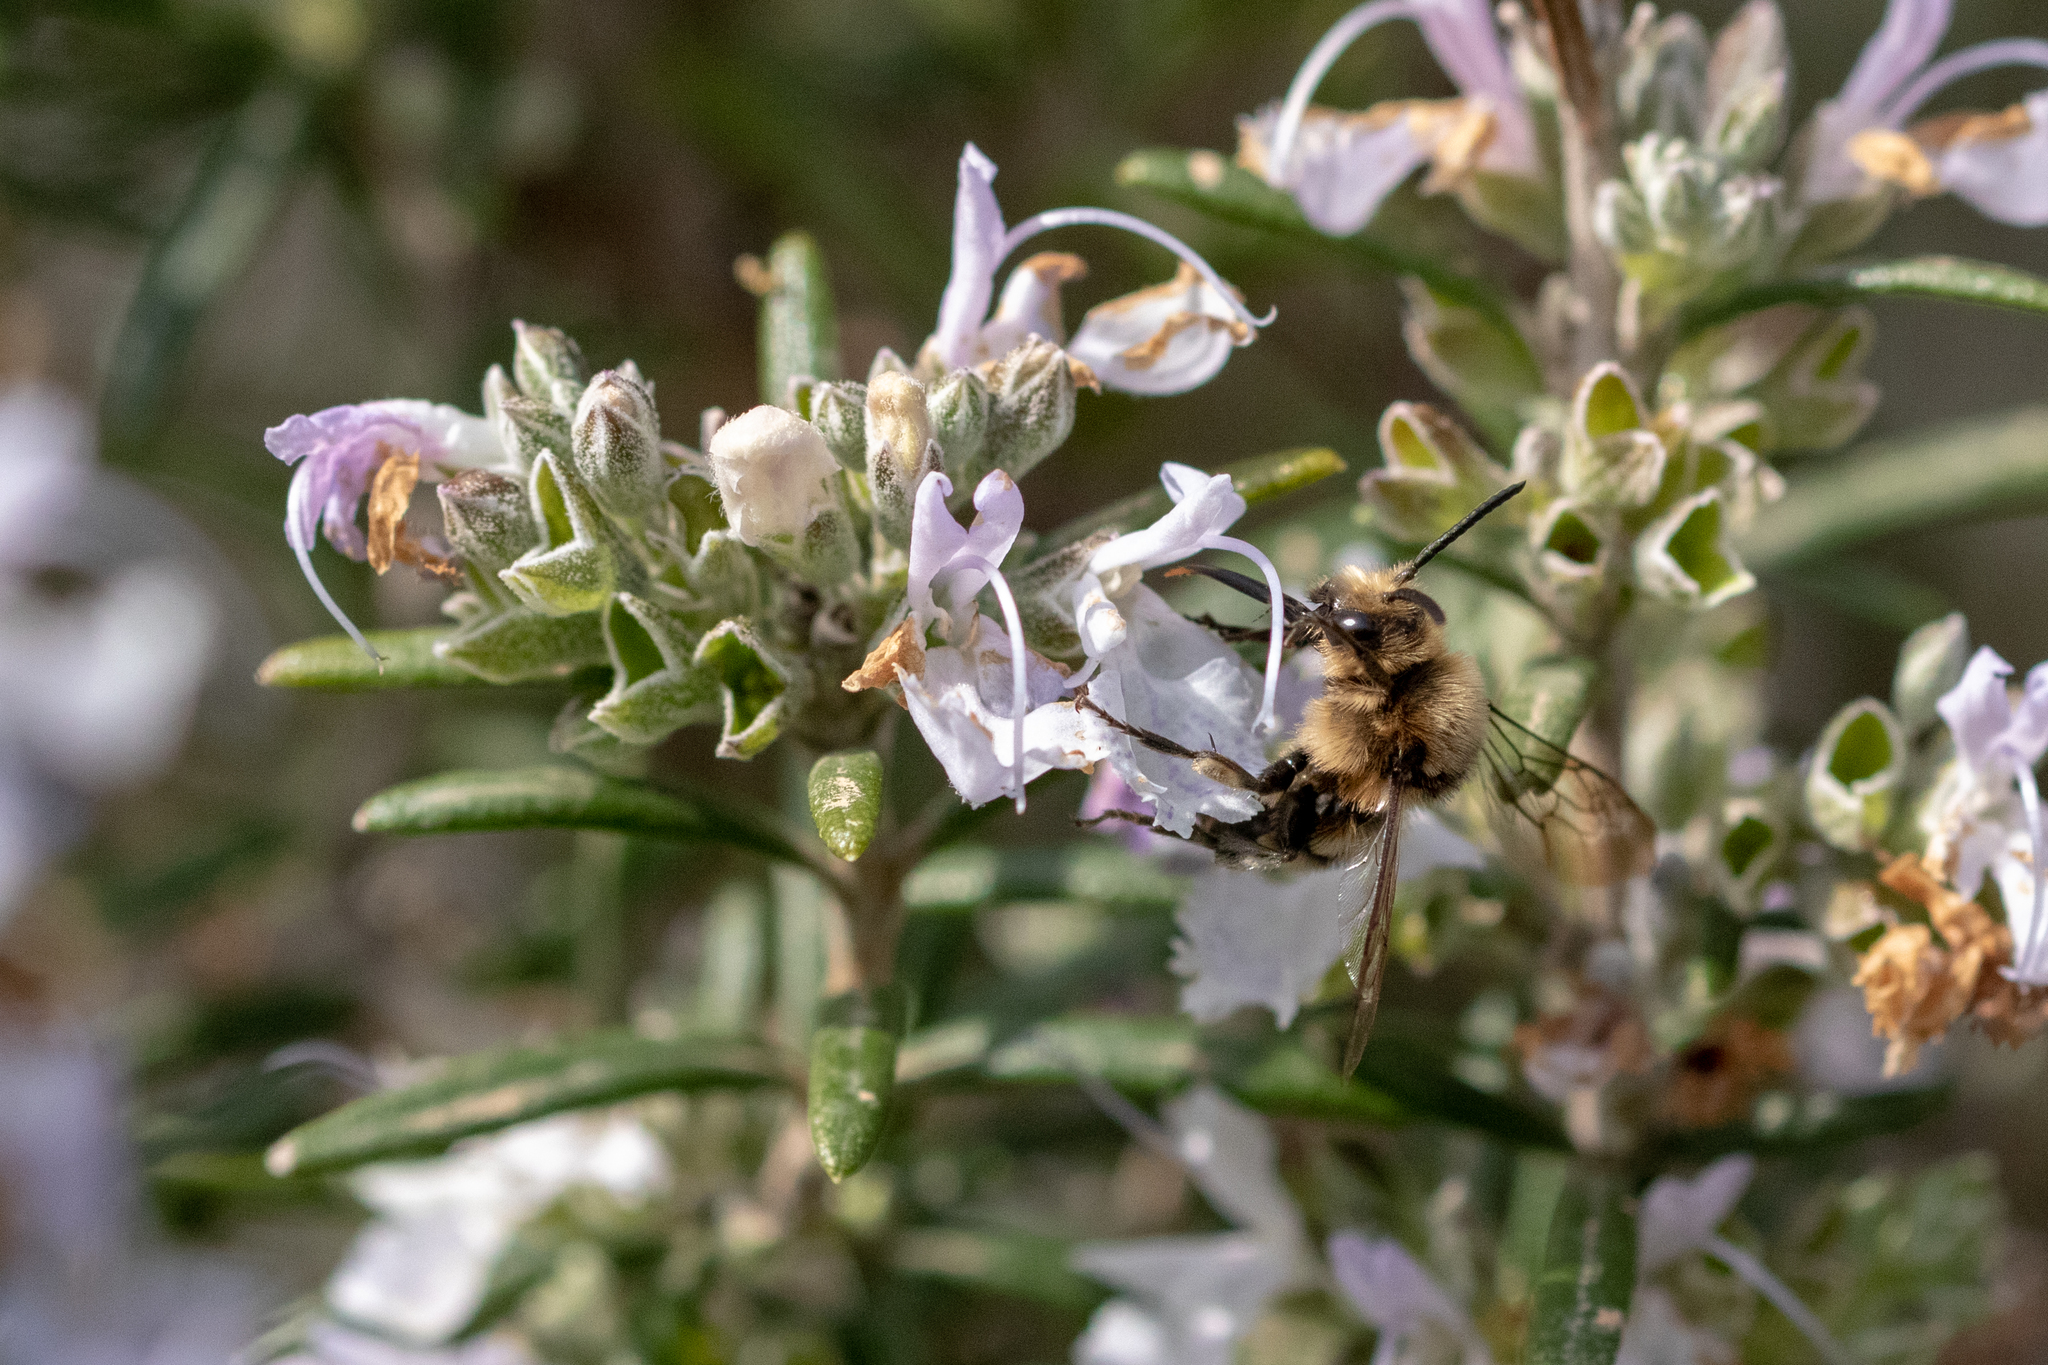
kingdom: Animalia
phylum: Arthropoda
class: Insecta
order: Hymenoptera
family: Apidae
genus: Melecta
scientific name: Melecta albifrons
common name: Common mourning bee
